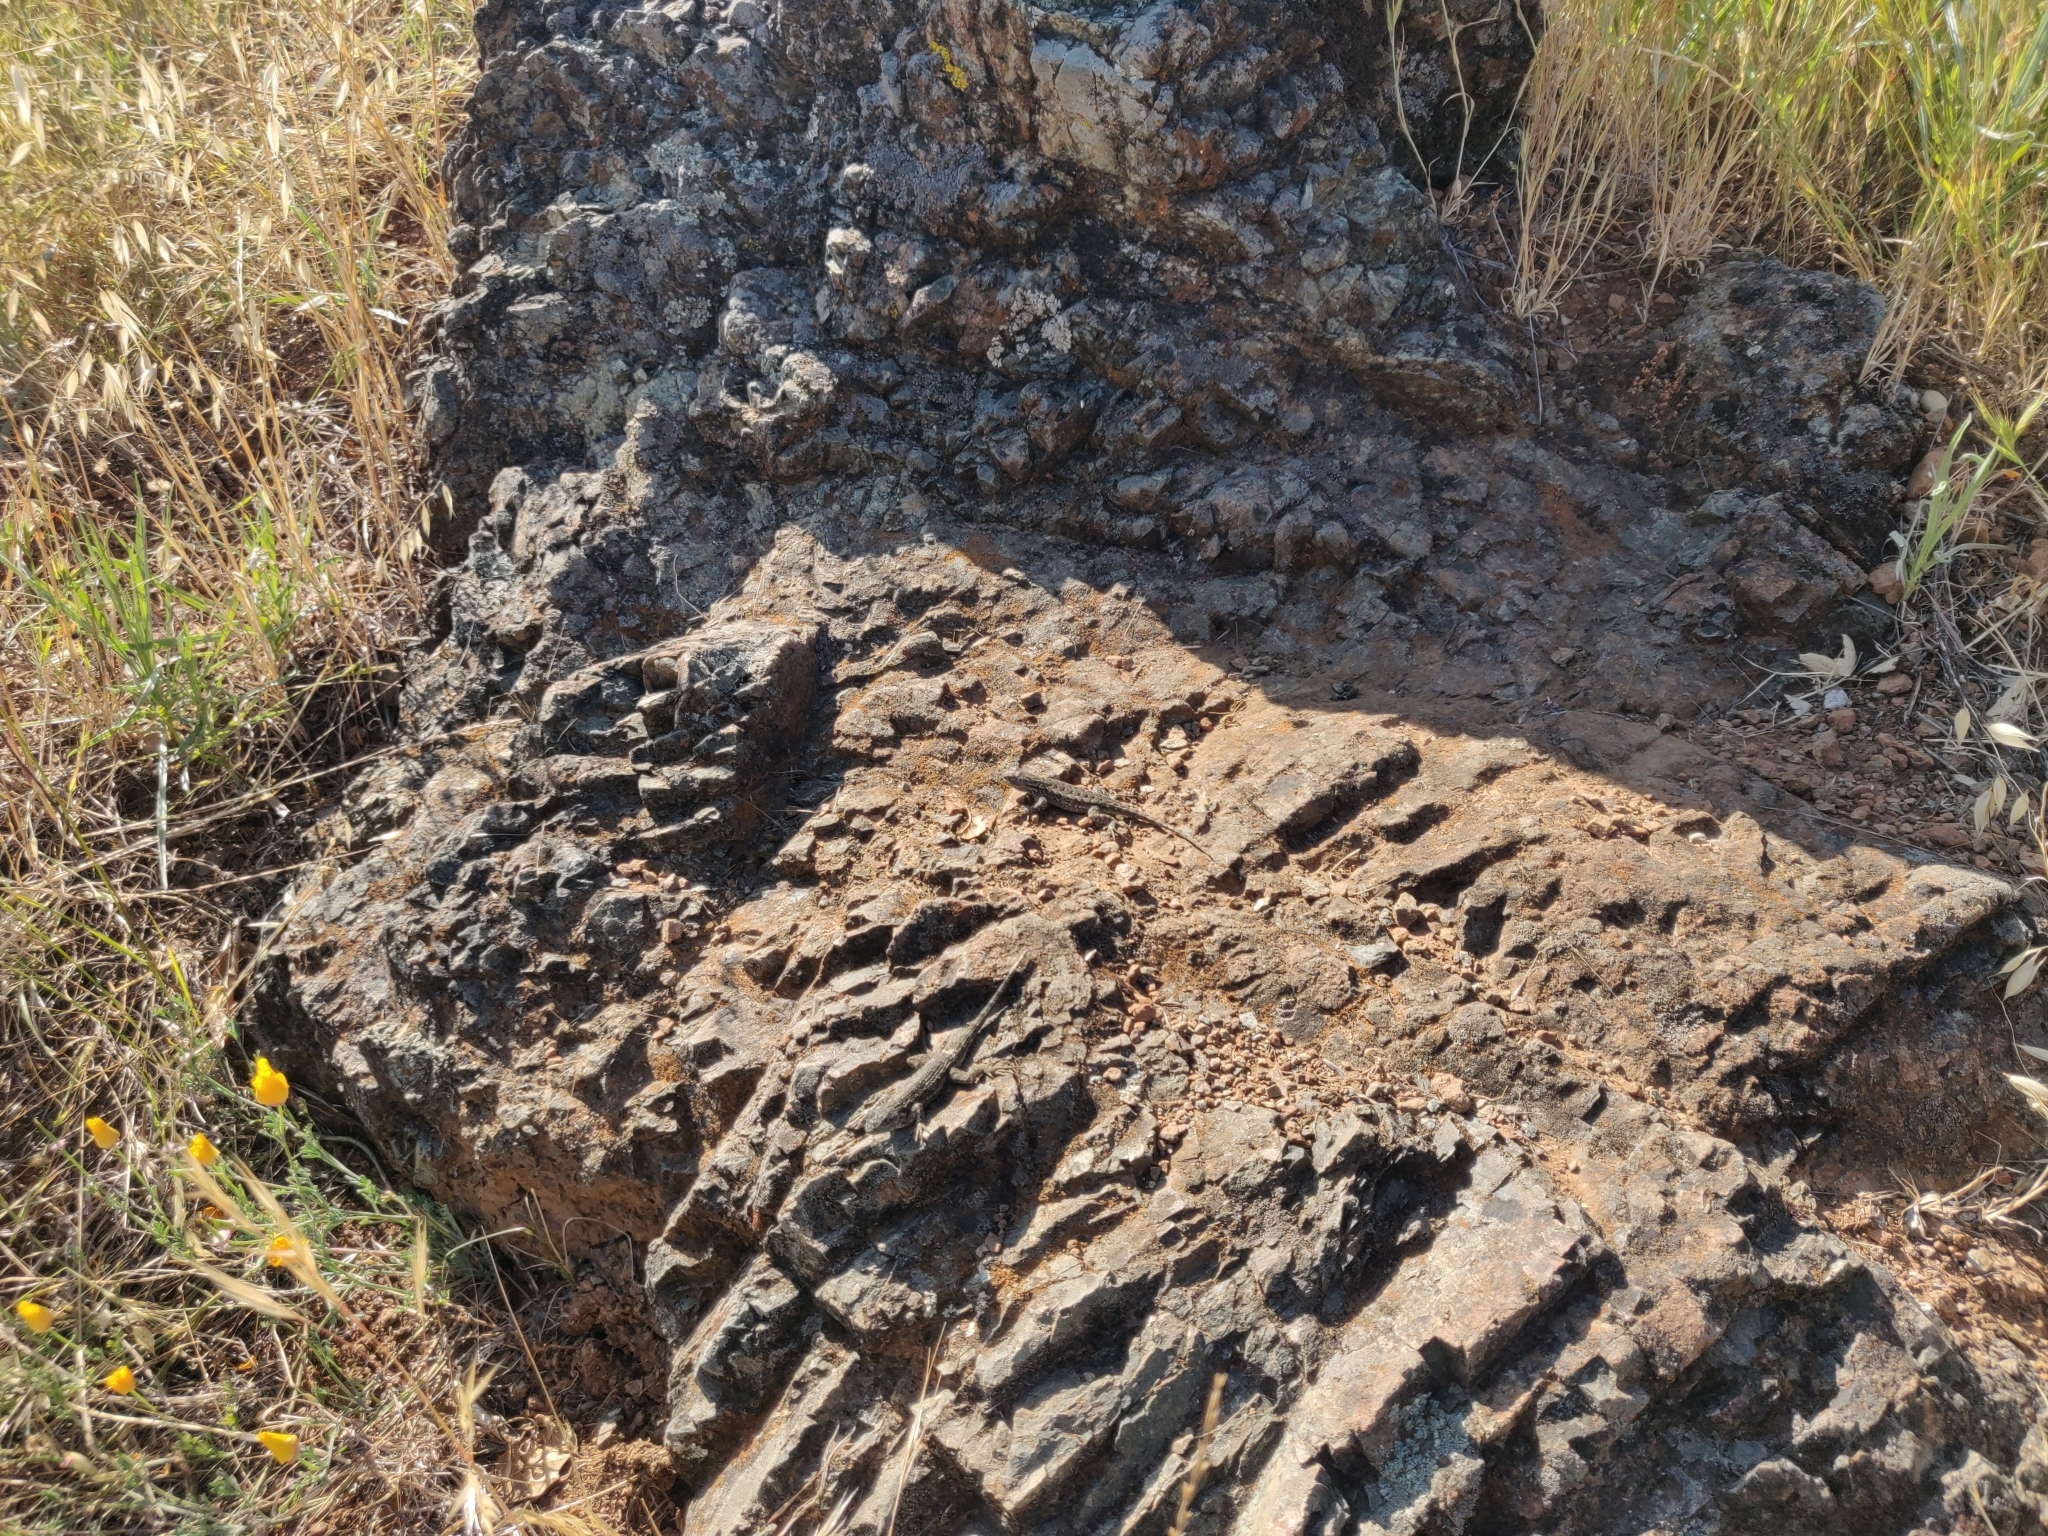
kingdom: Animalia
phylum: Chordata
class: Squamata
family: Phrynosomatidae
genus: Sceloporus
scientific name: Sceloporus occidentalis
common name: Western fence lizard
